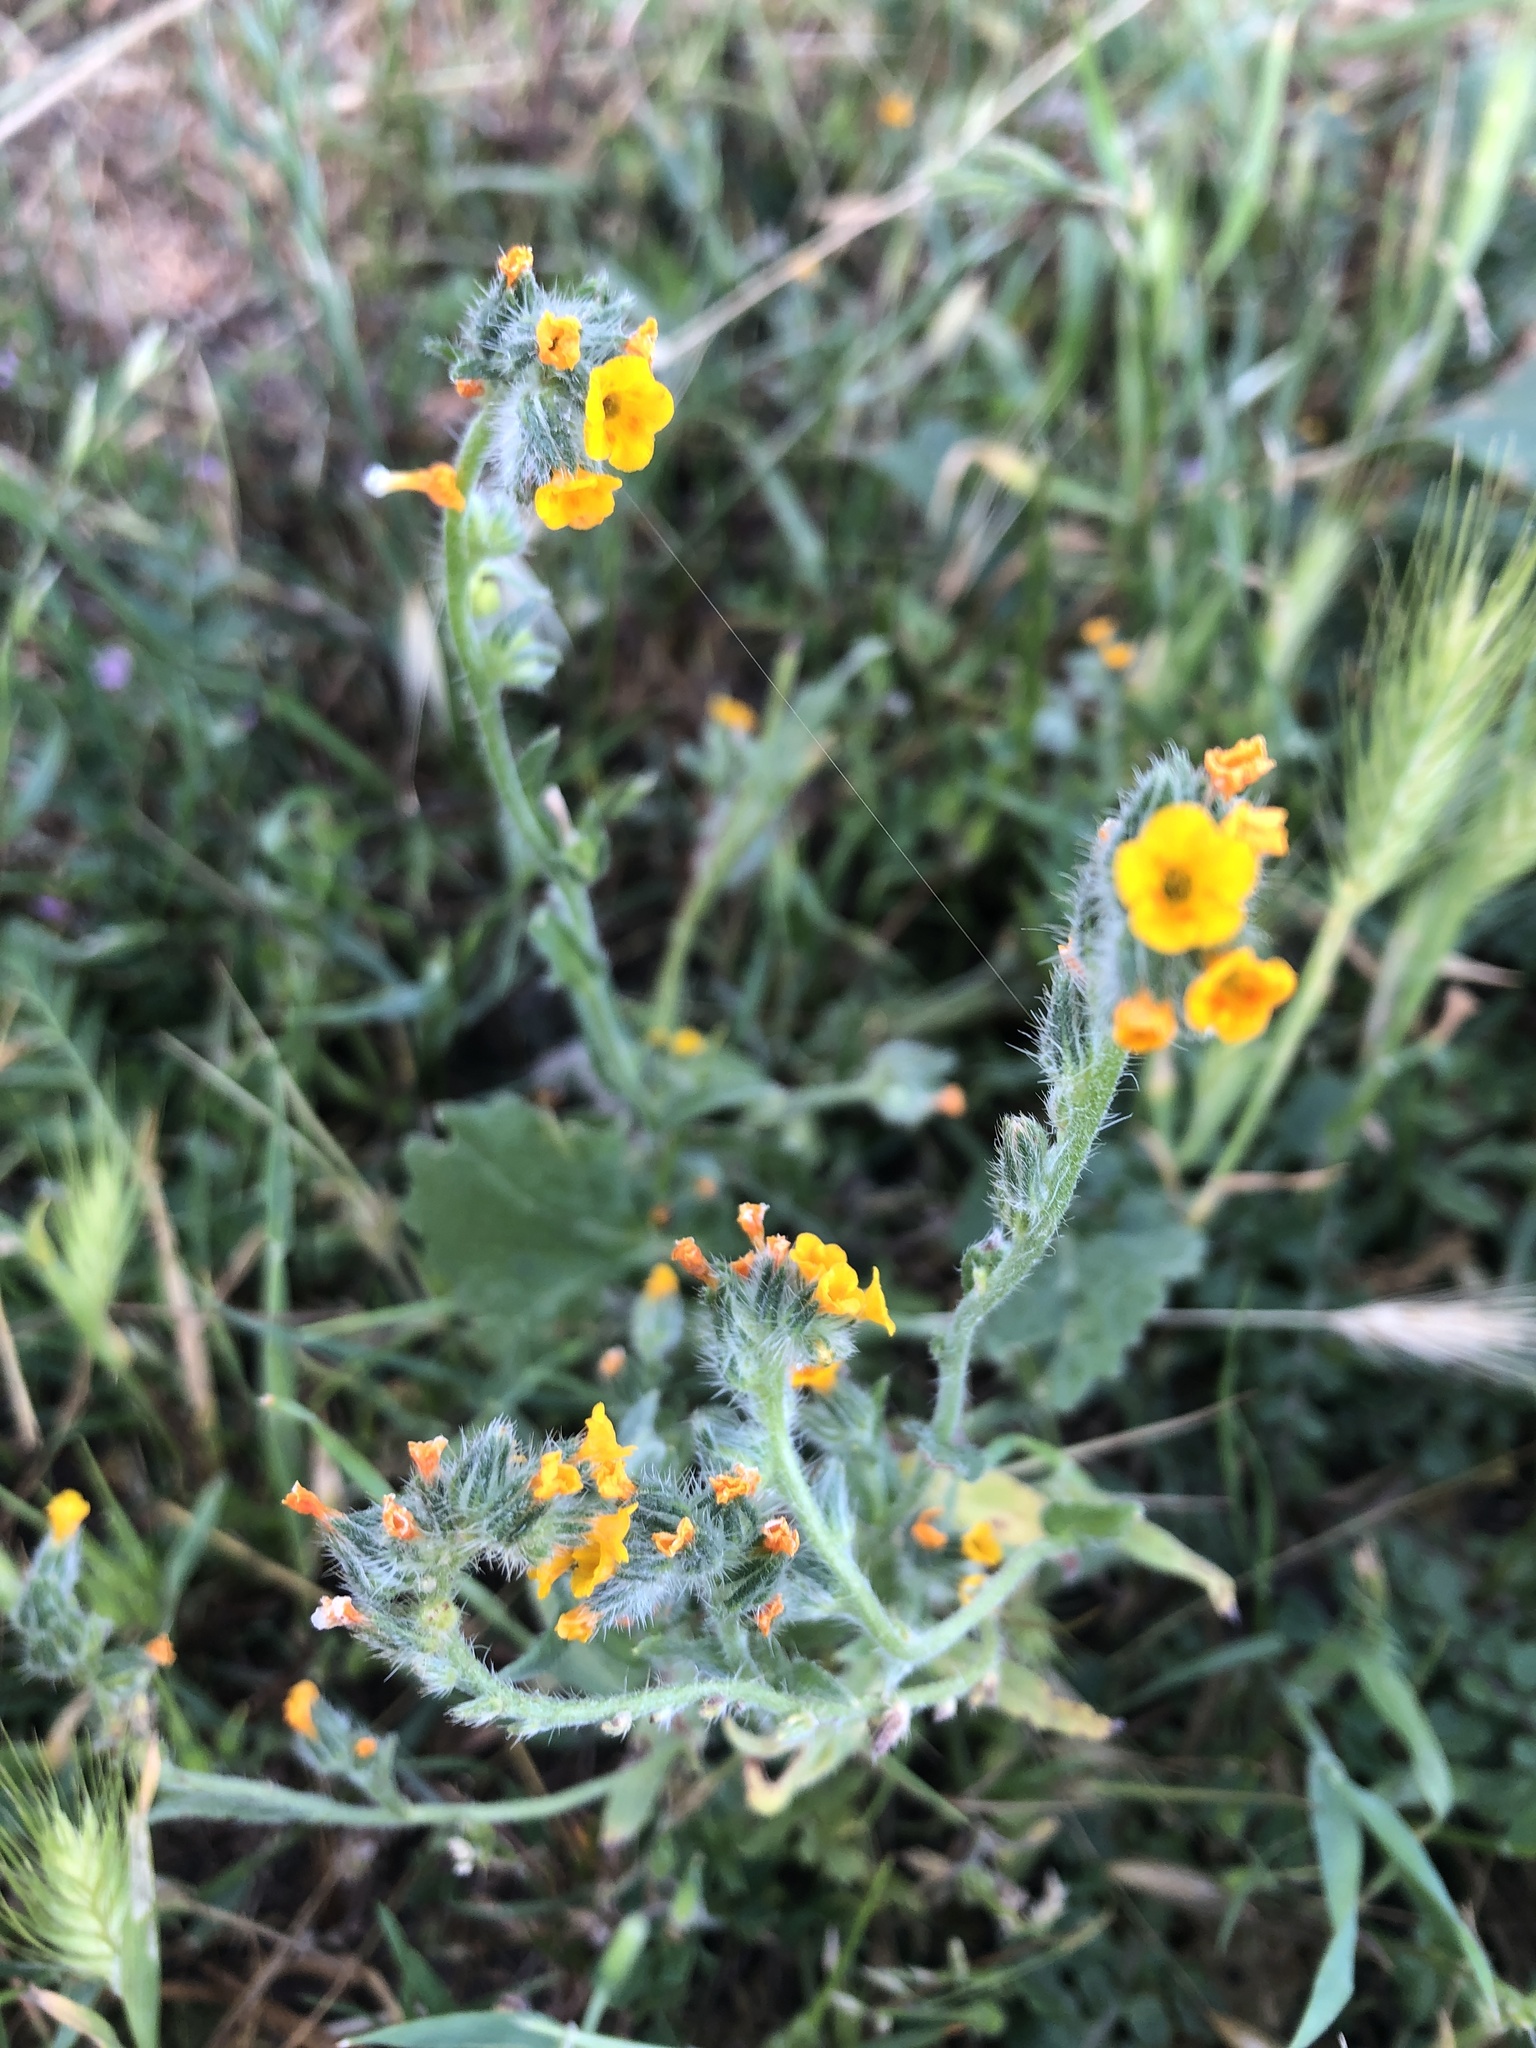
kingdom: Plantae
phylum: Tracheophyta
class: Magnoliopsida
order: Boraginales
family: Boraginaceae
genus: Amsinckia
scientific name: Amsinckia menziesii
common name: Menzies' fiddleneck
